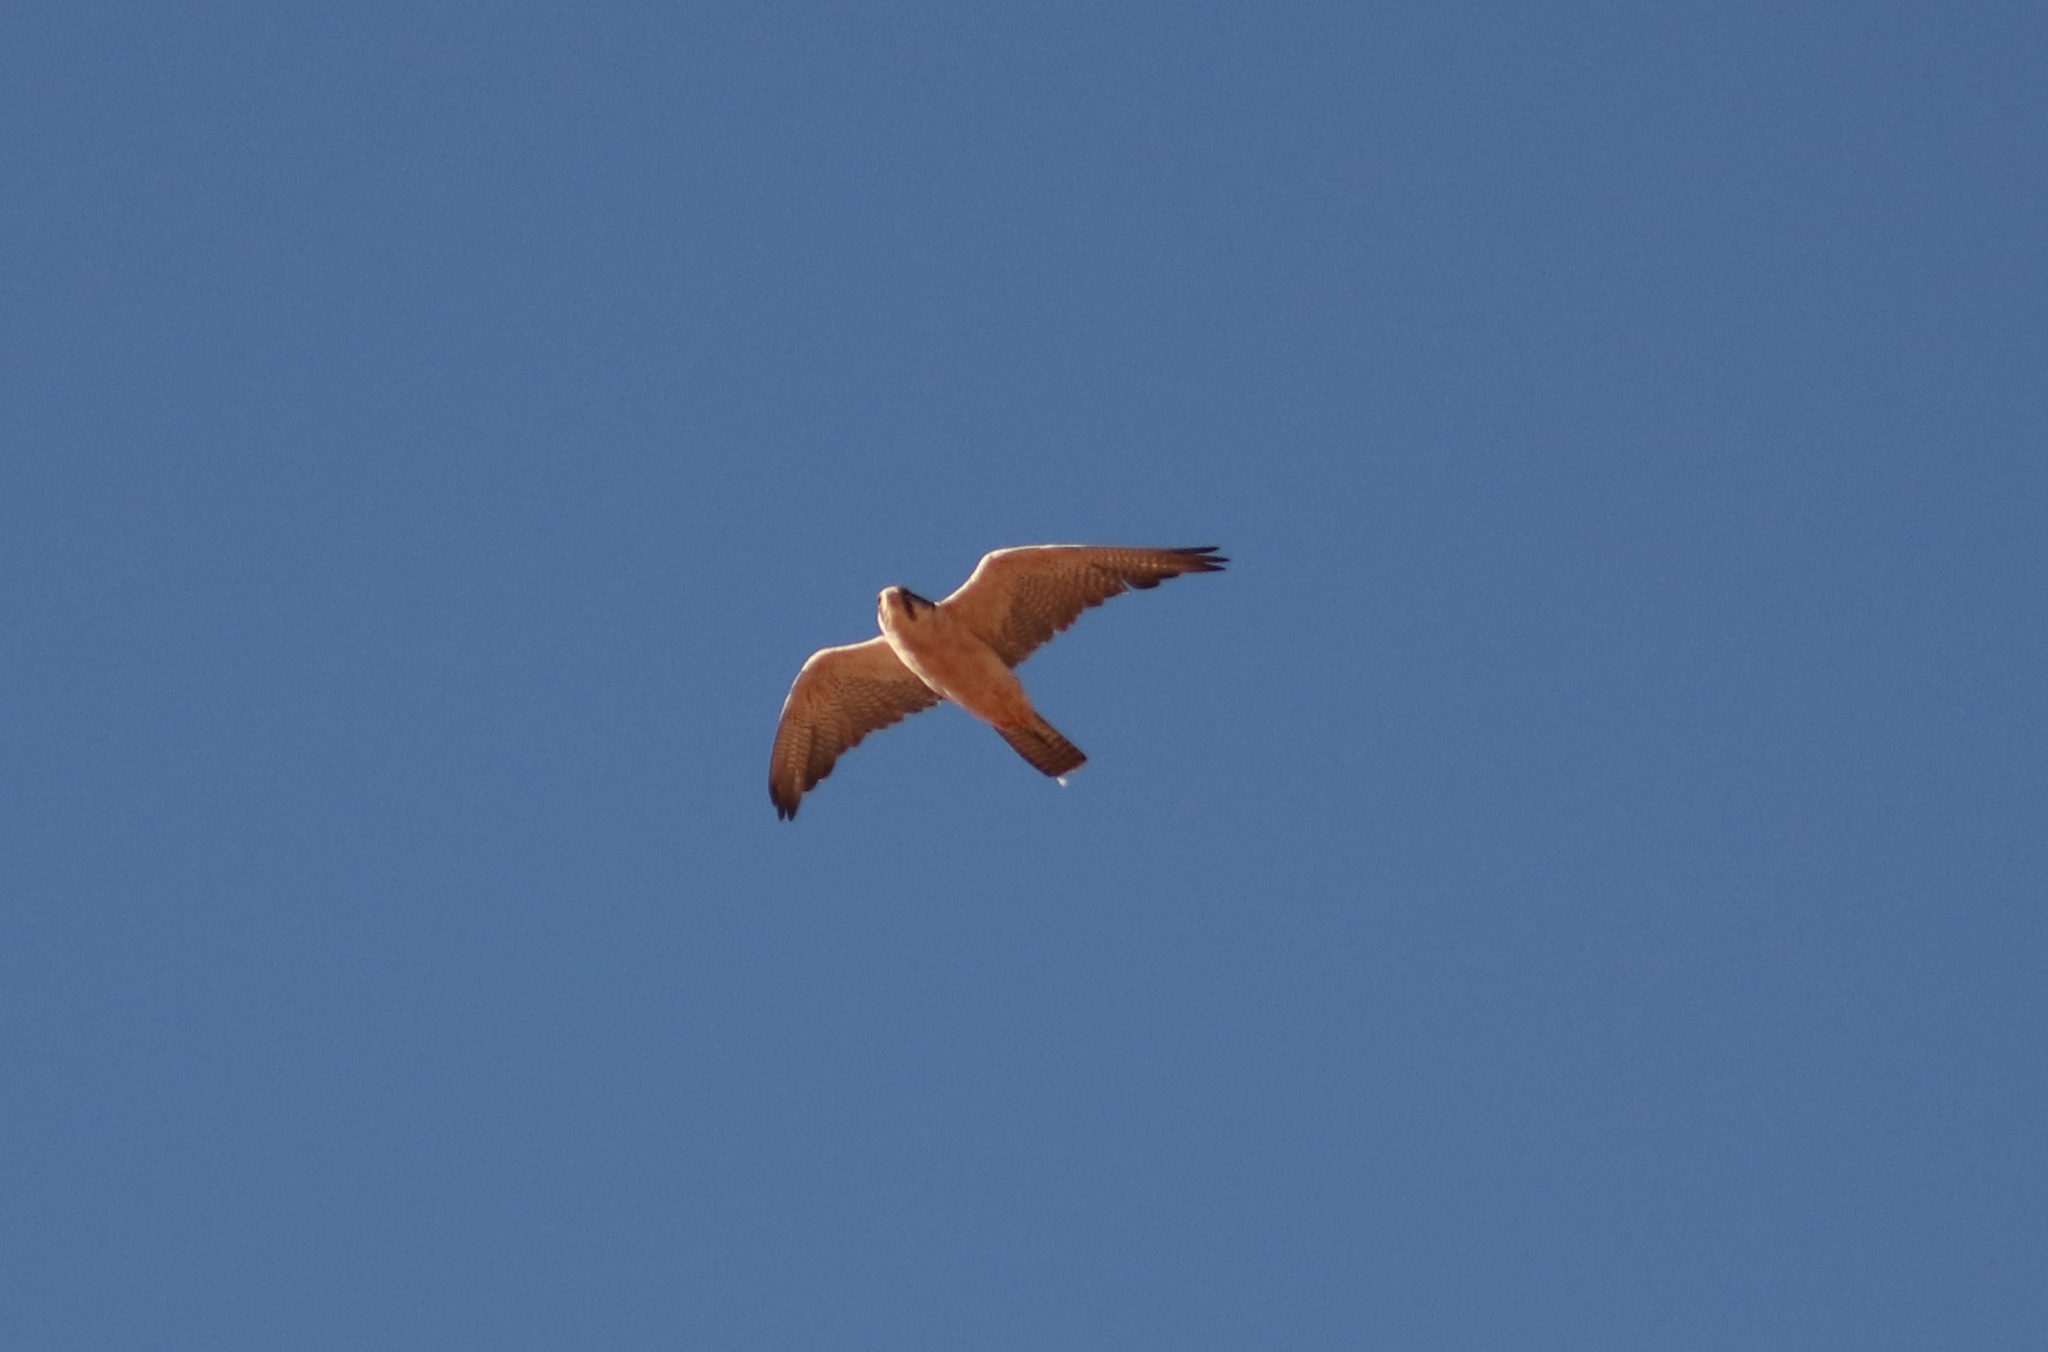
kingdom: Animalia
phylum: Chordata
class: Aves
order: Falconiformes
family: Falconidae
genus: Falco
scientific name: Falco biarmicus
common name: Lanner falcon
